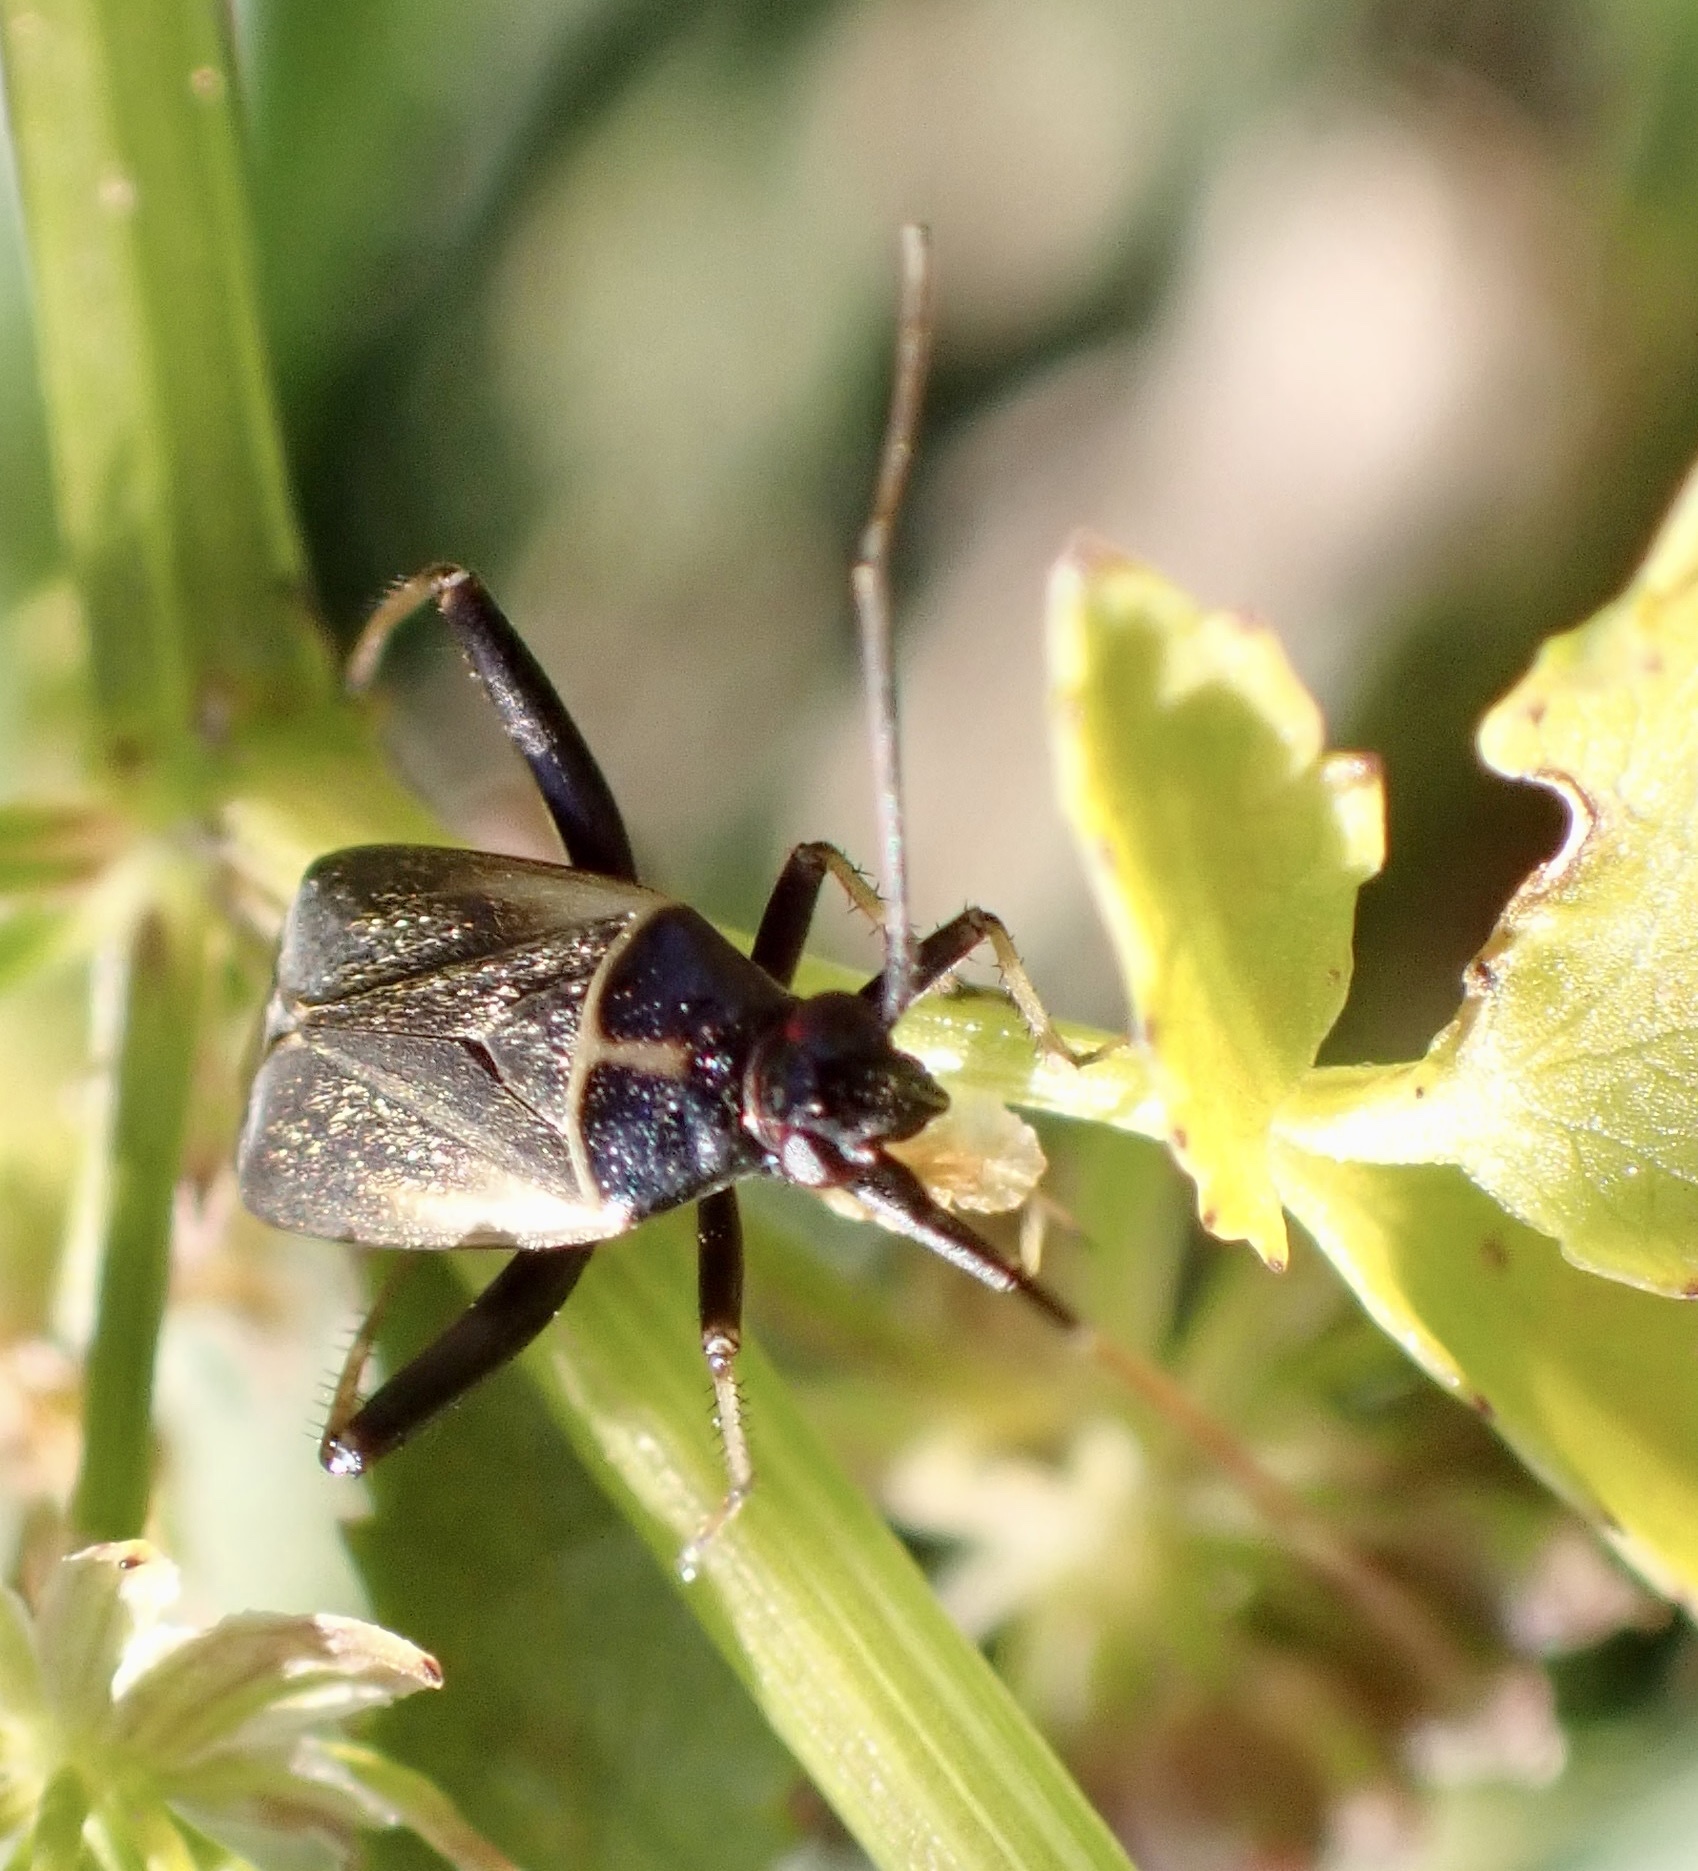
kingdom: Animalia
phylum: Arthropoda
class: Insecta
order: Hemiptera
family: Miridae
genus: Adelphocoris
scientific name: Adelphocoris seticornis
